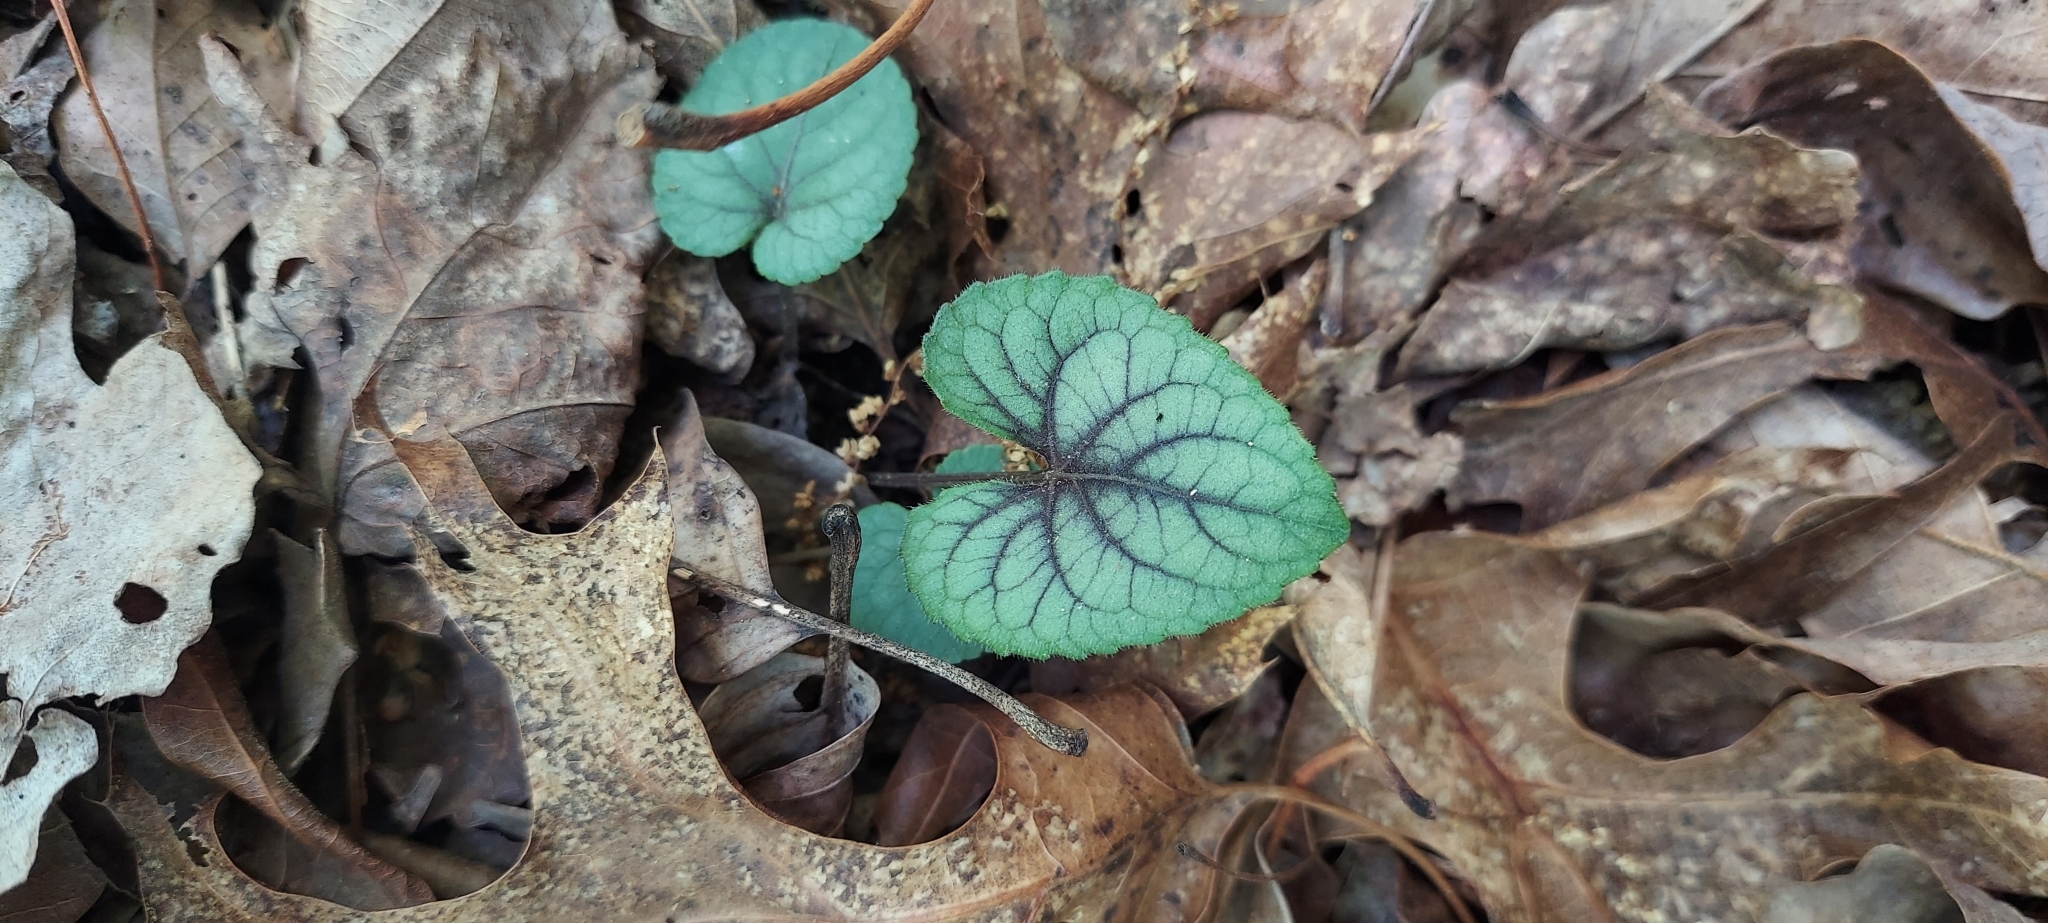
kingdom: Plantae
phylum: Tracheophyta
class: Magnoliopsida
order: Malpighiales
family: Violaceae
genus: Viola
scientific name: Viola walteri
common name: Prostrate southern violet
